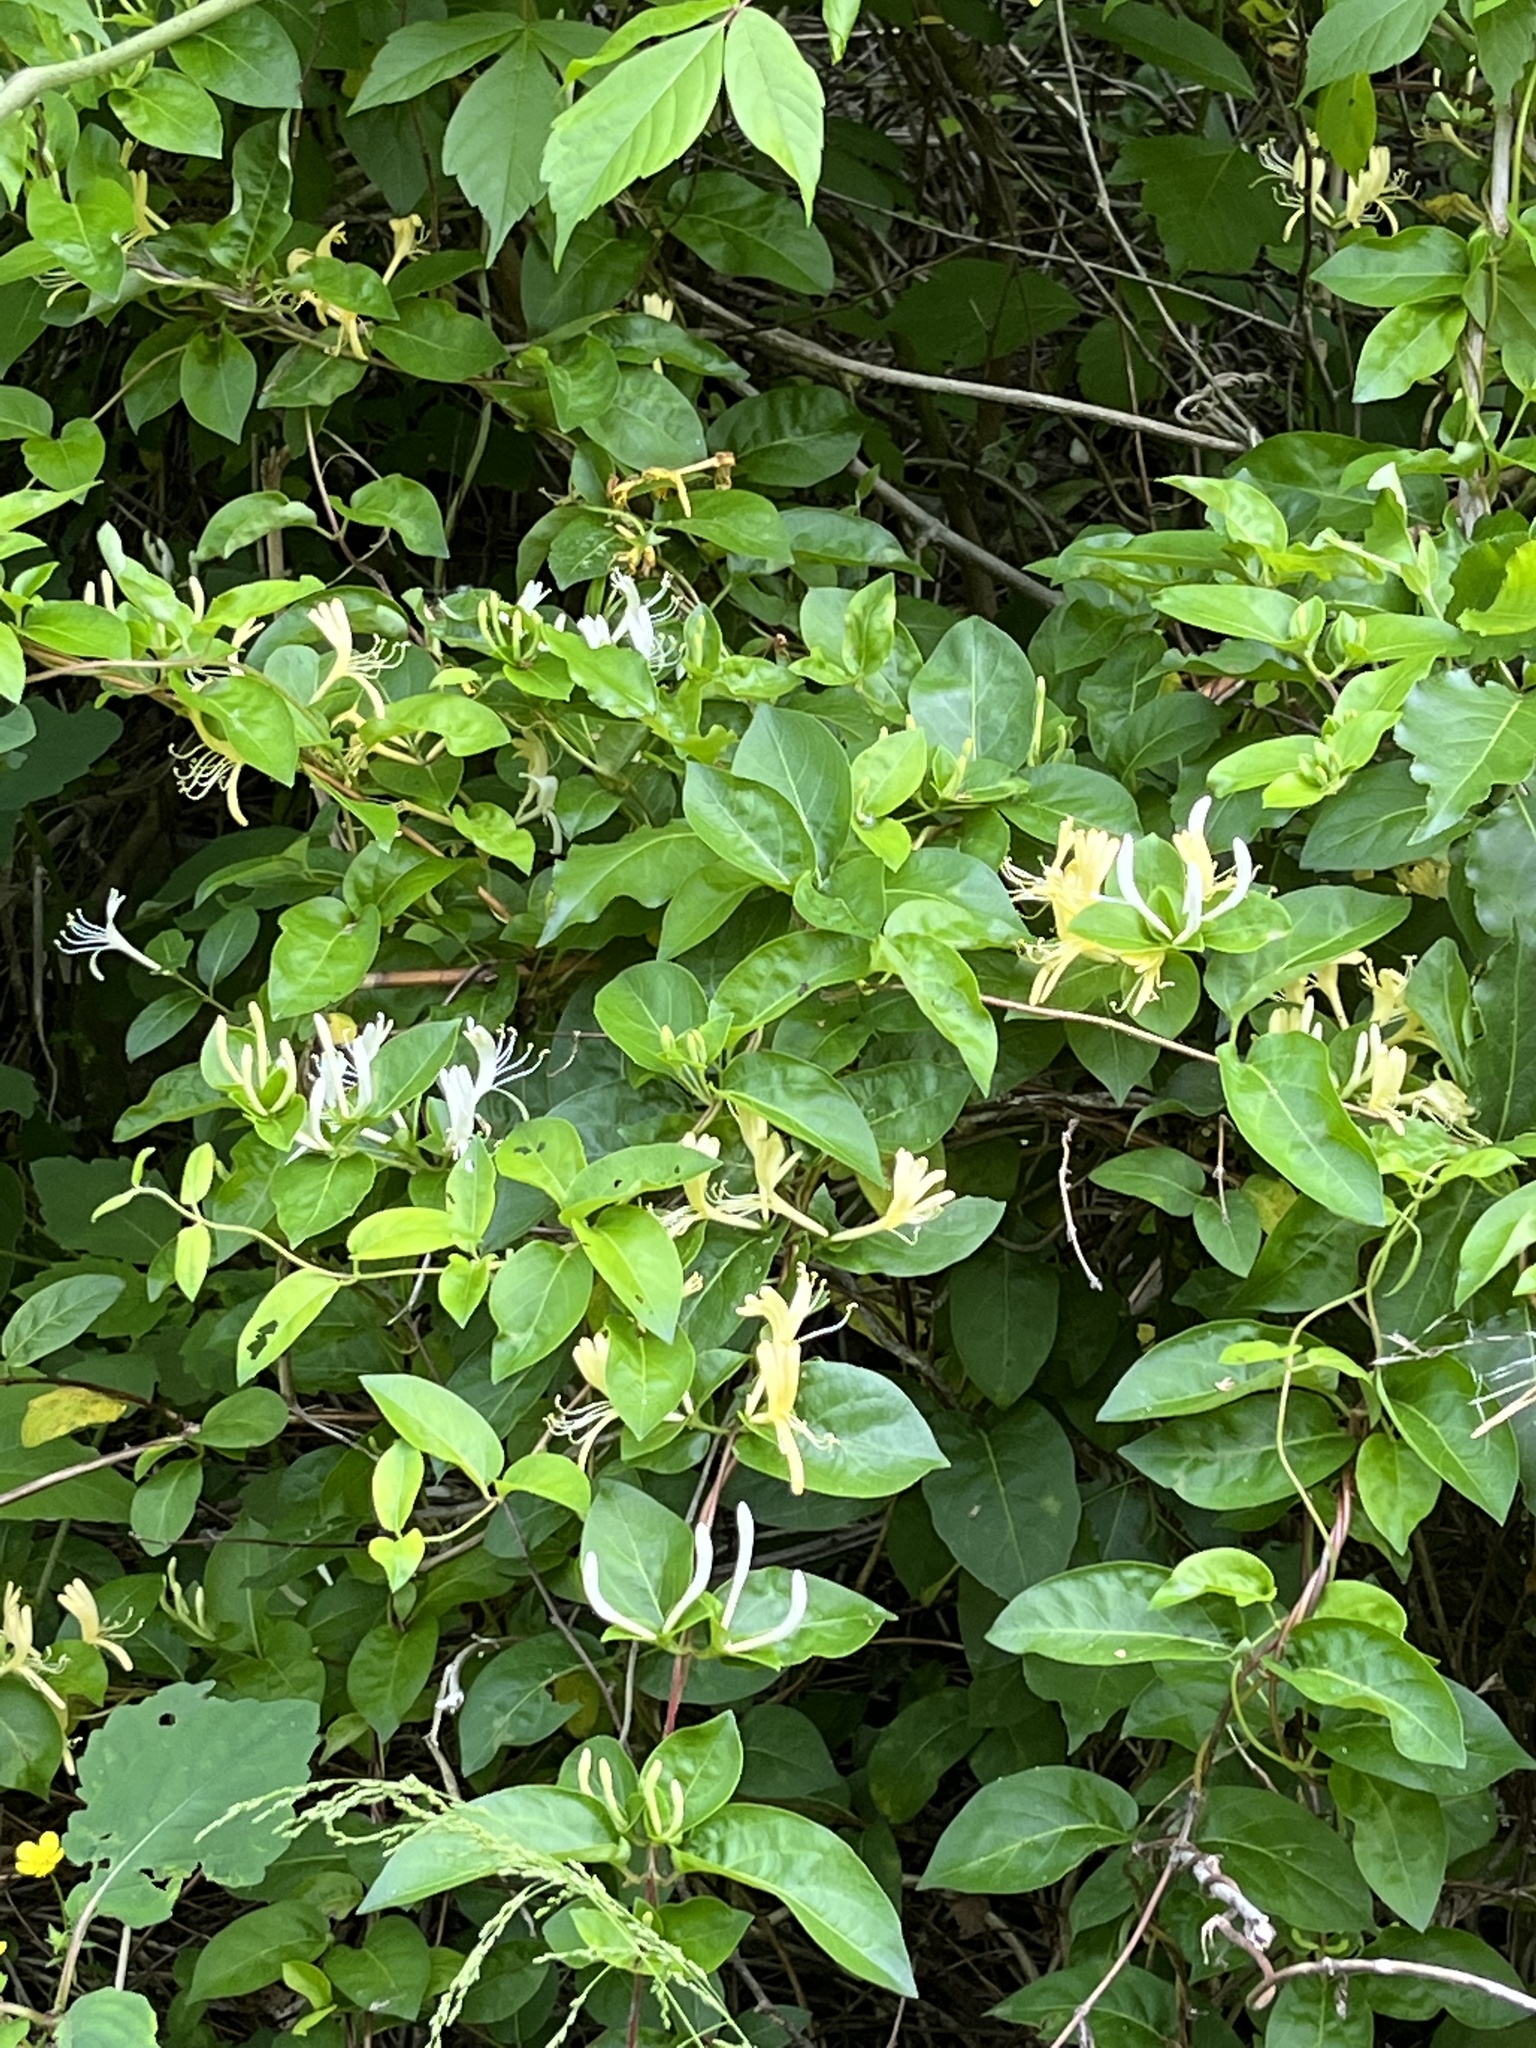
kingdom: Plantae
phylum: Tracheophyta
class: Magnoliopsida
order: Dipsacales
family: Caprifoliaceae
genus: Lonicera
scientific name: Lonicera japonica
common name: Japanese honeysuckle
